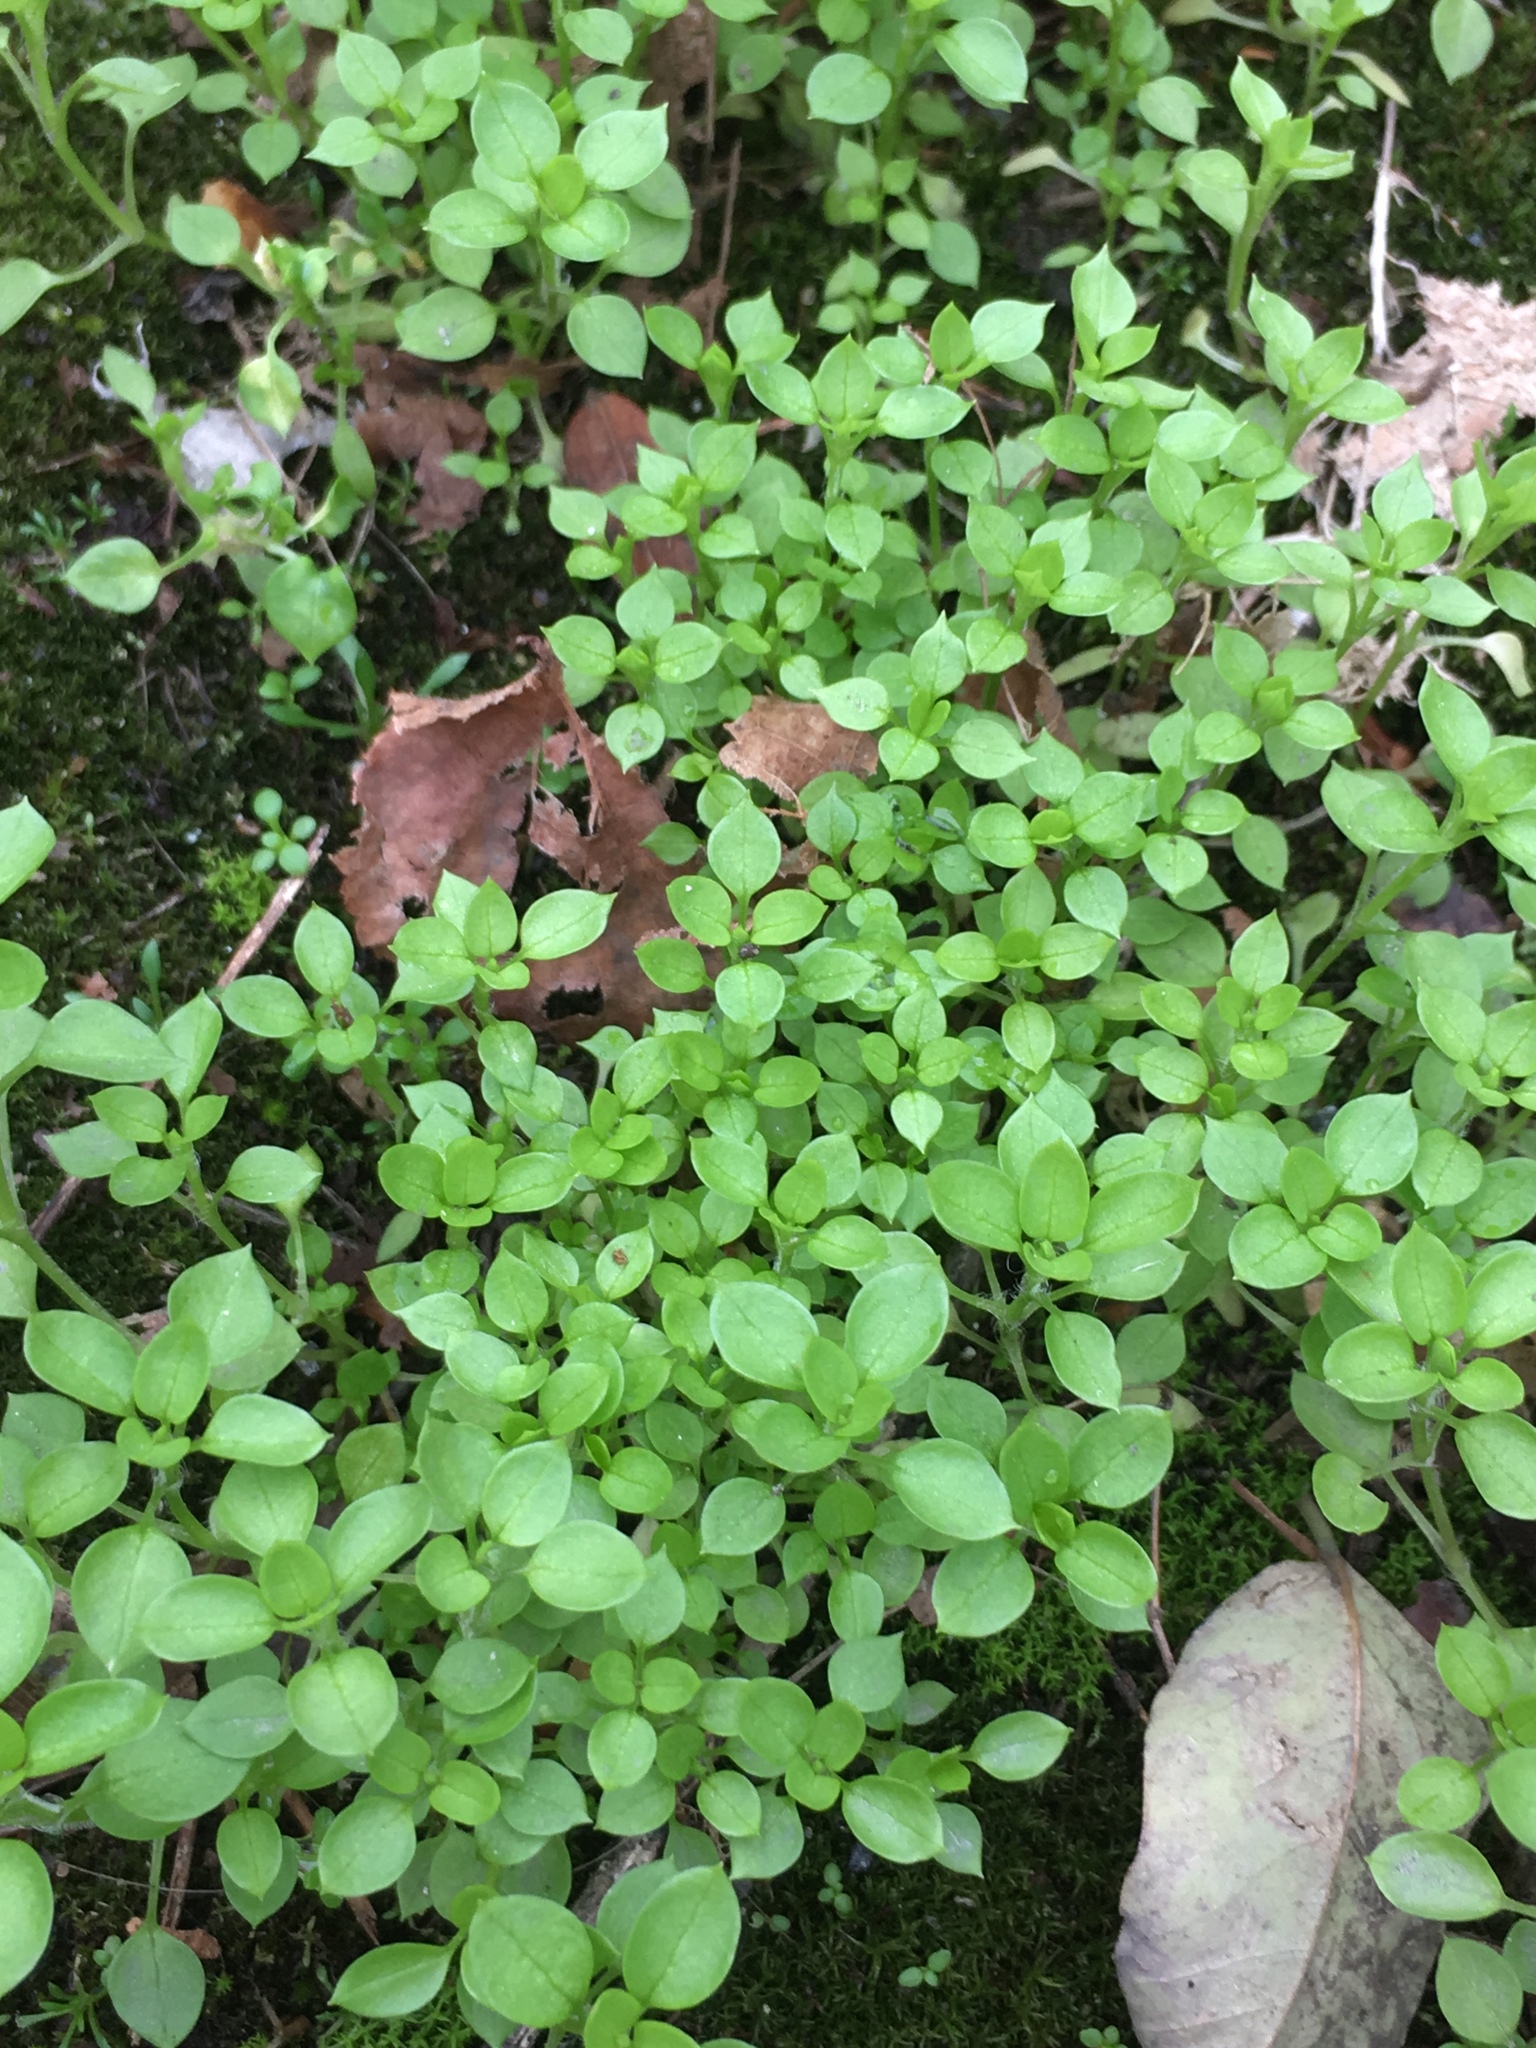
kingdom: Plantae
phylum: Tracheophyta
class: Magnoliopsida
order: Caryophyllales
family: Caryophyllaceae
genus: Stellaria
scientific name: Stellaria media
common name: Common chickweed
